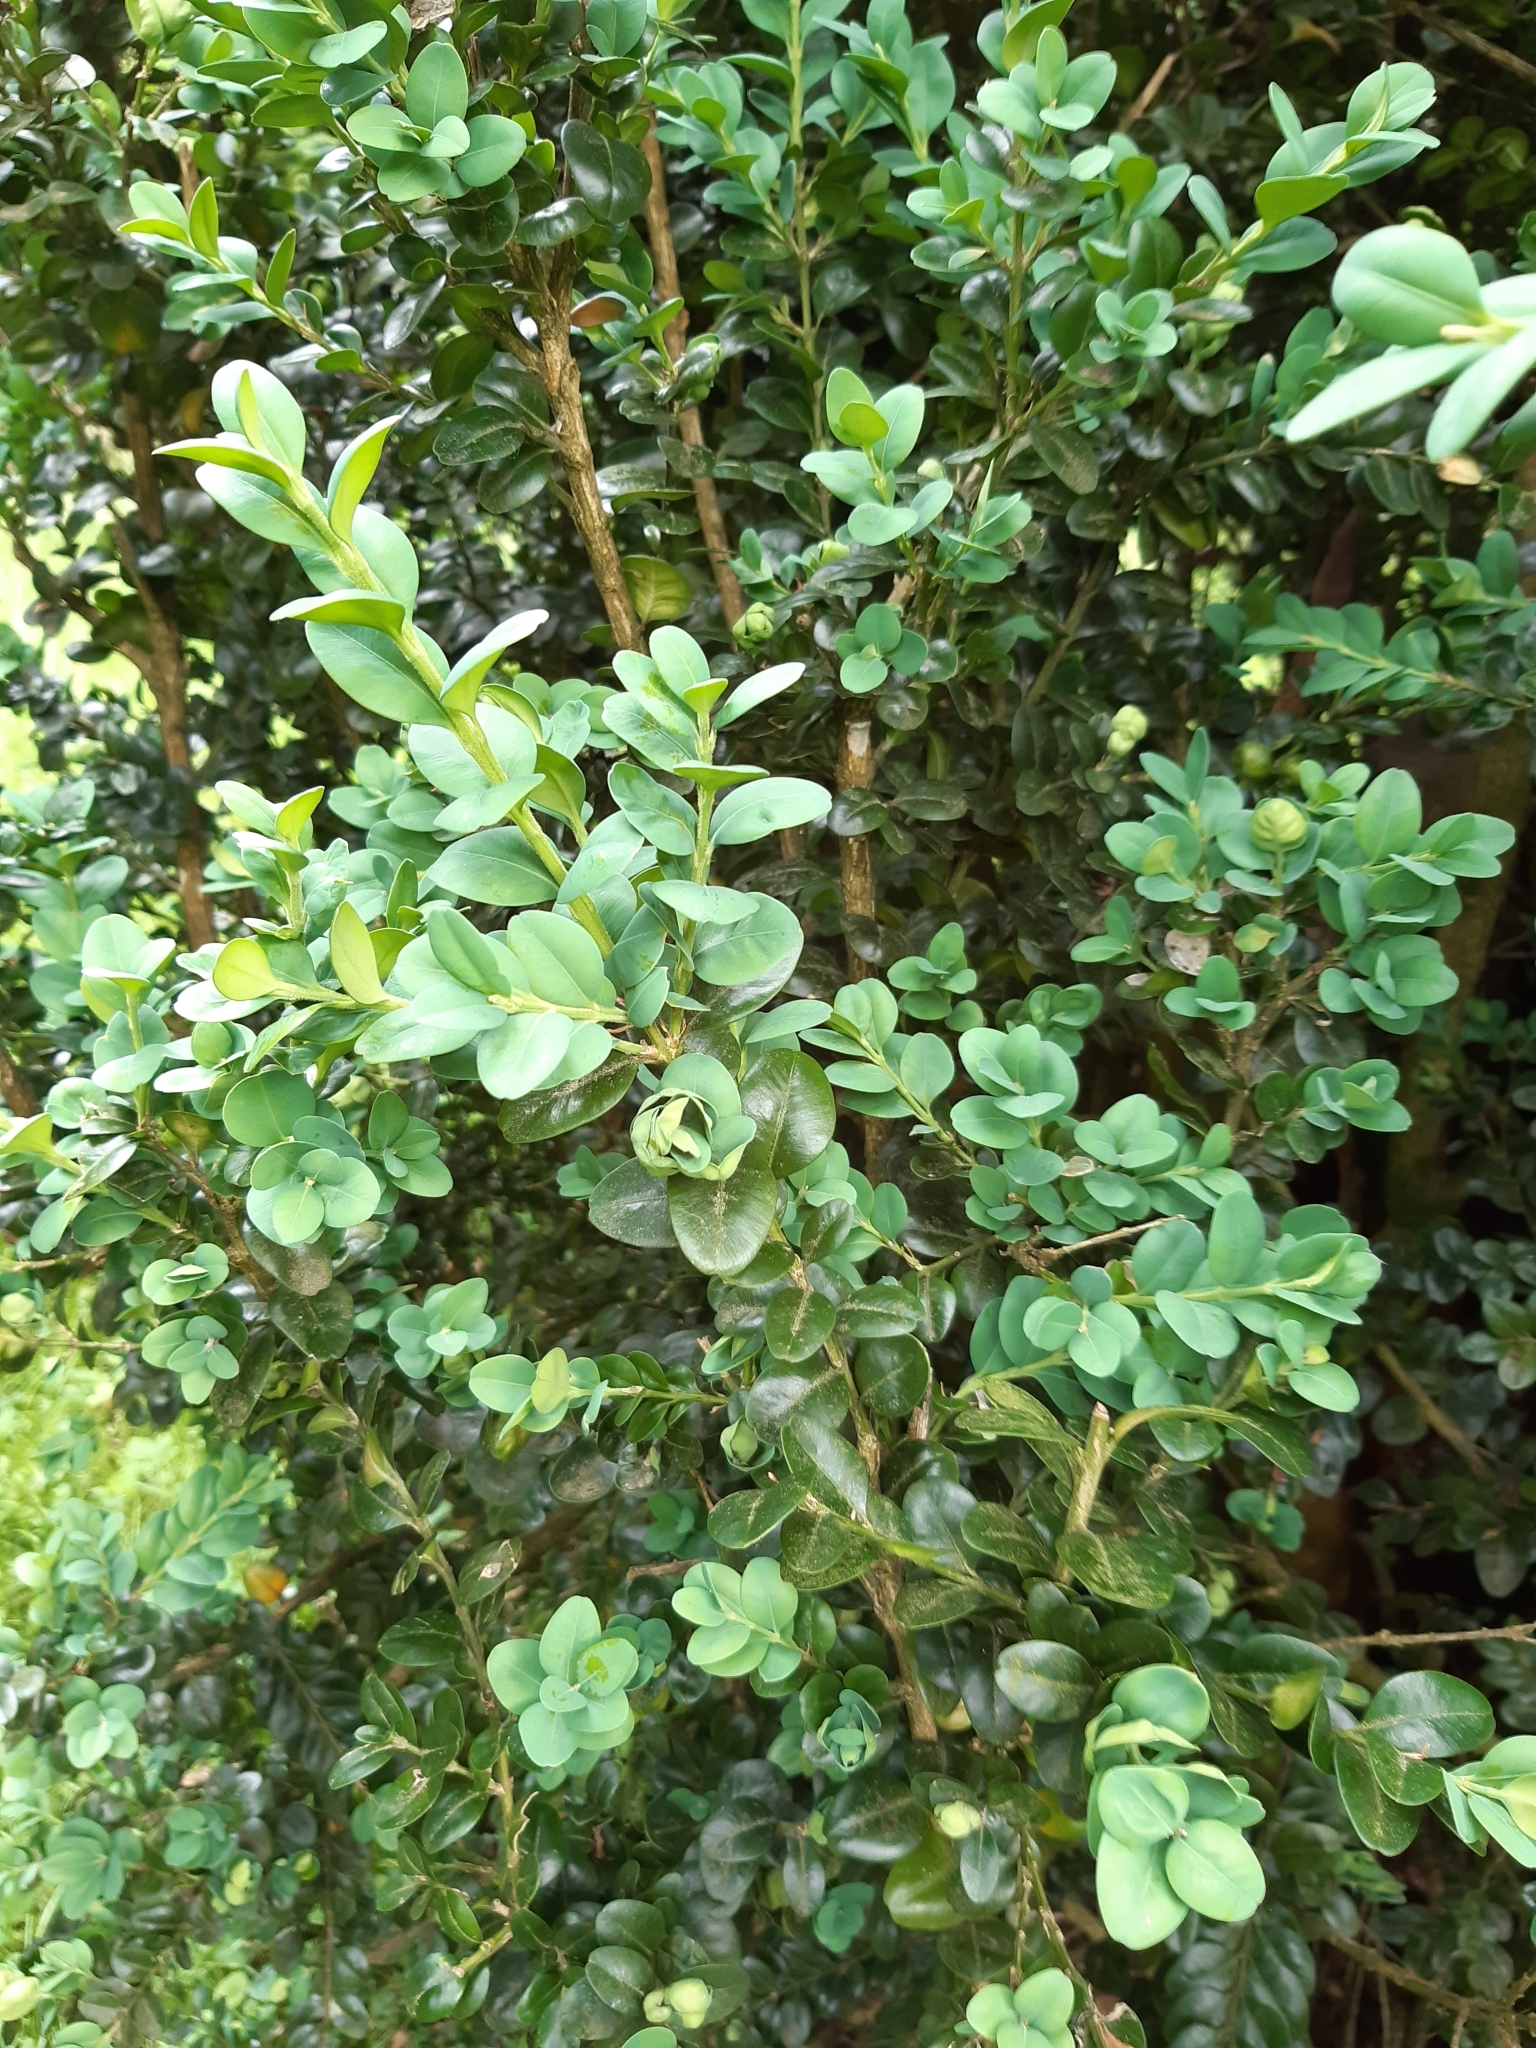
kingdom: Plantae
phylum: Tracheophyta
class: Magnoliopsida
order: Buxales
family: Buxaceae
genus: Buxus
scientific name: Buxus sempervirens
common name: Box
